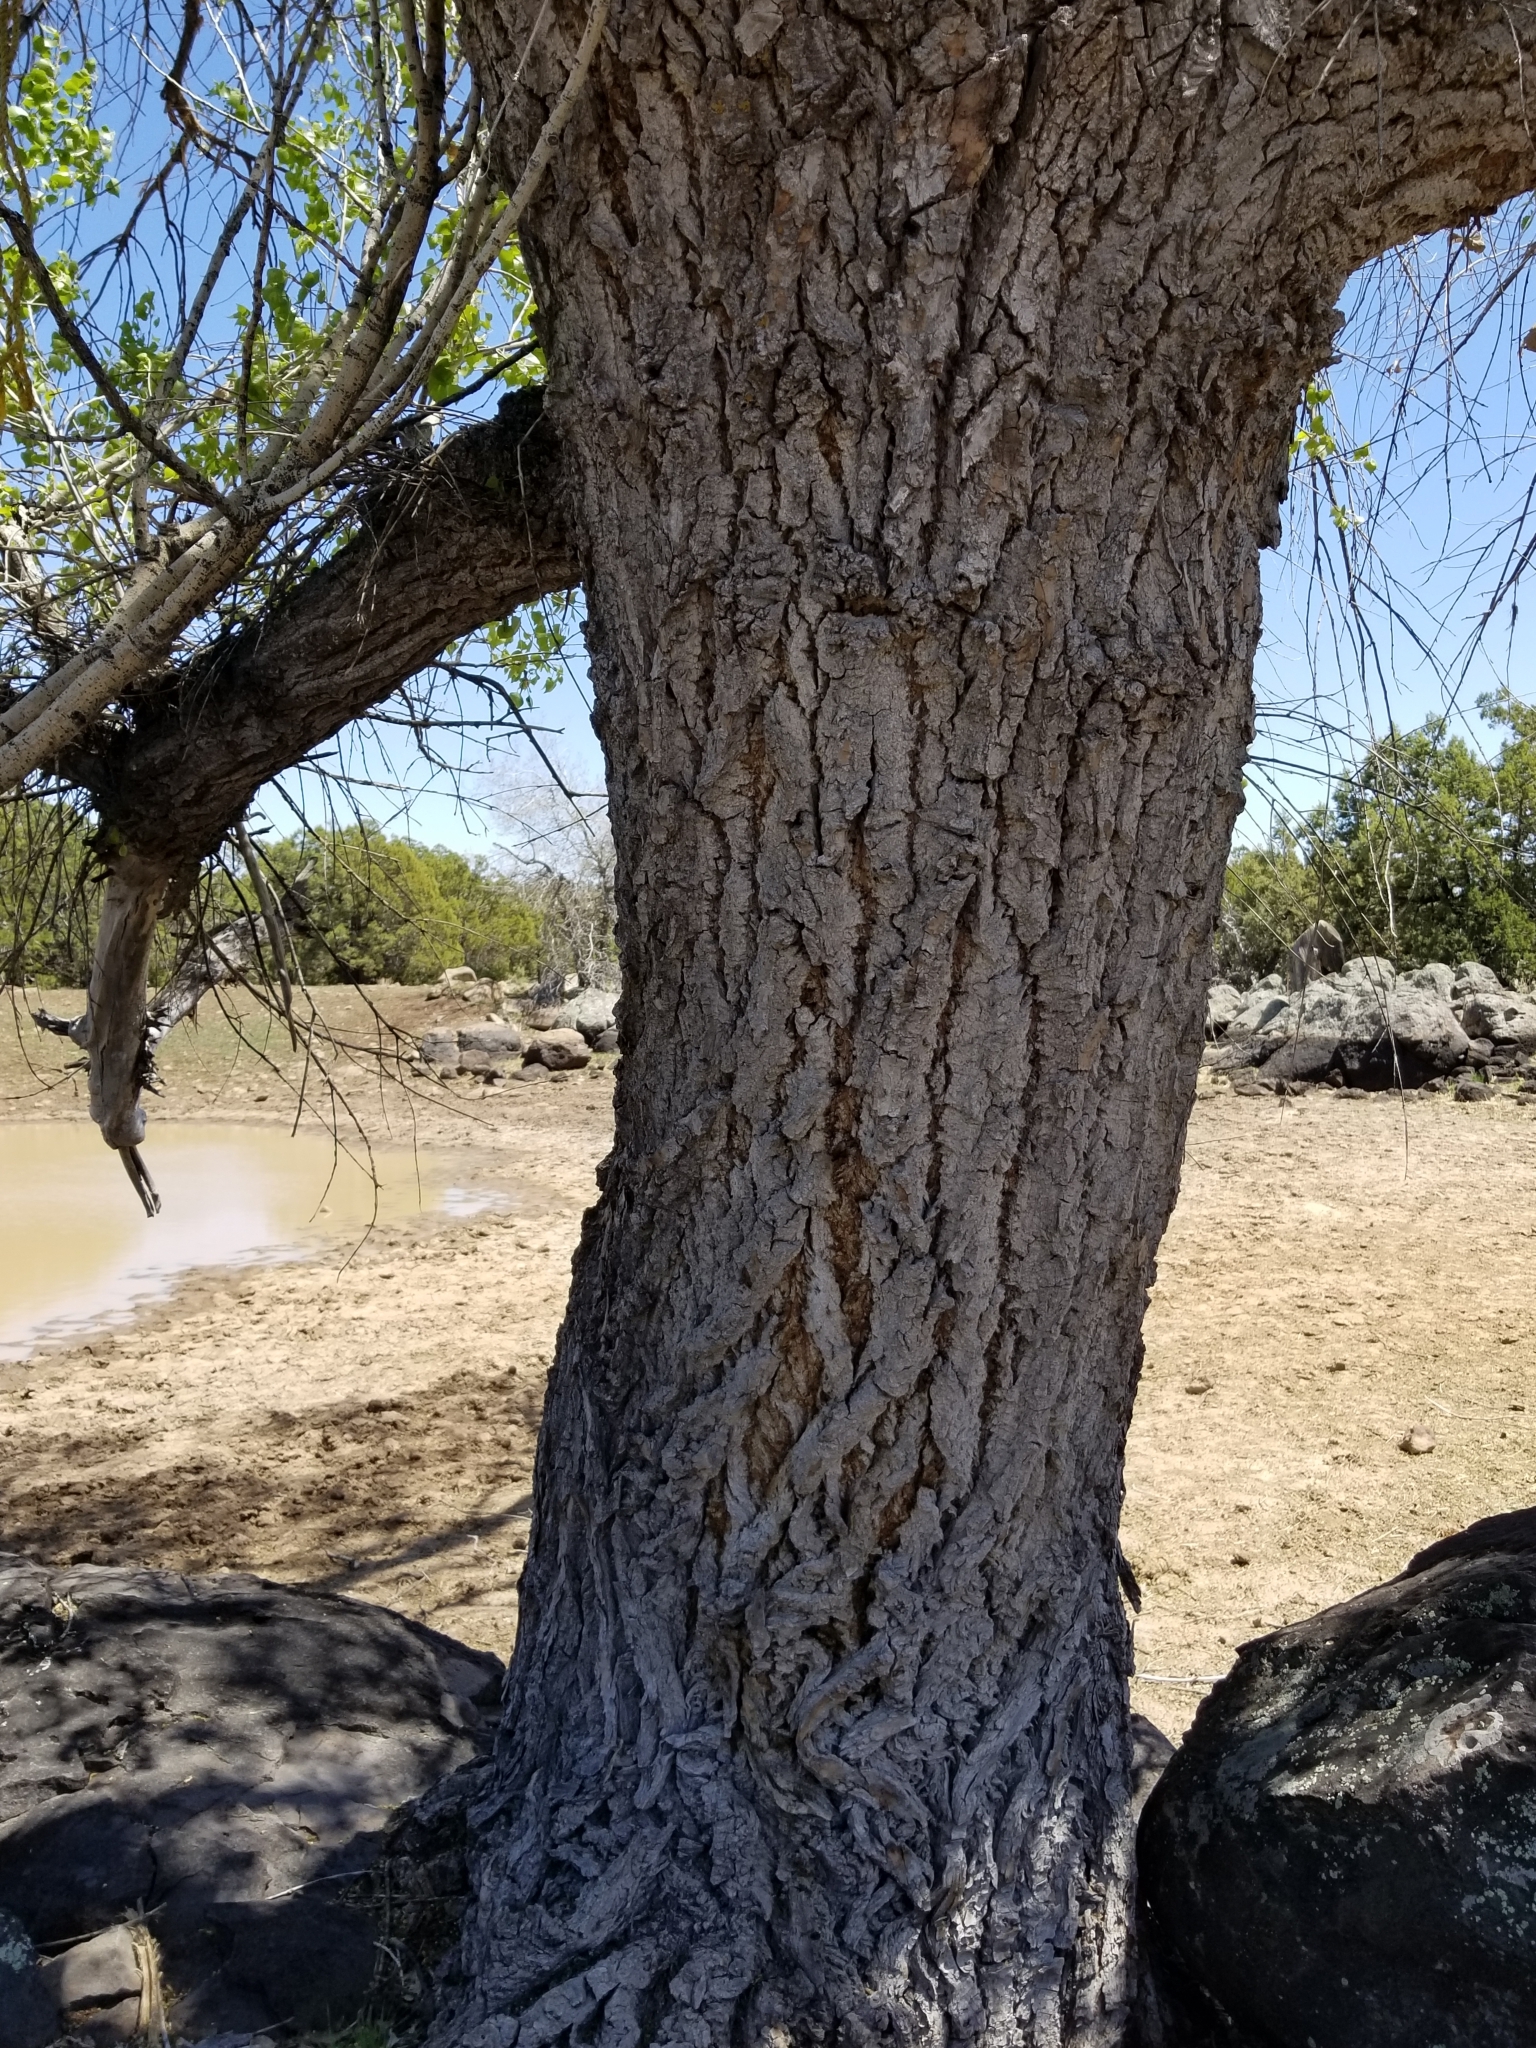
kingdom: Plantae
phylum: Tracheophyta
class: Magnoliopsida
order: Malpighiales
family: Salicaceae
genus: Populus
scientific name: Populus fremontii
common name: Fremont's cottonwood
